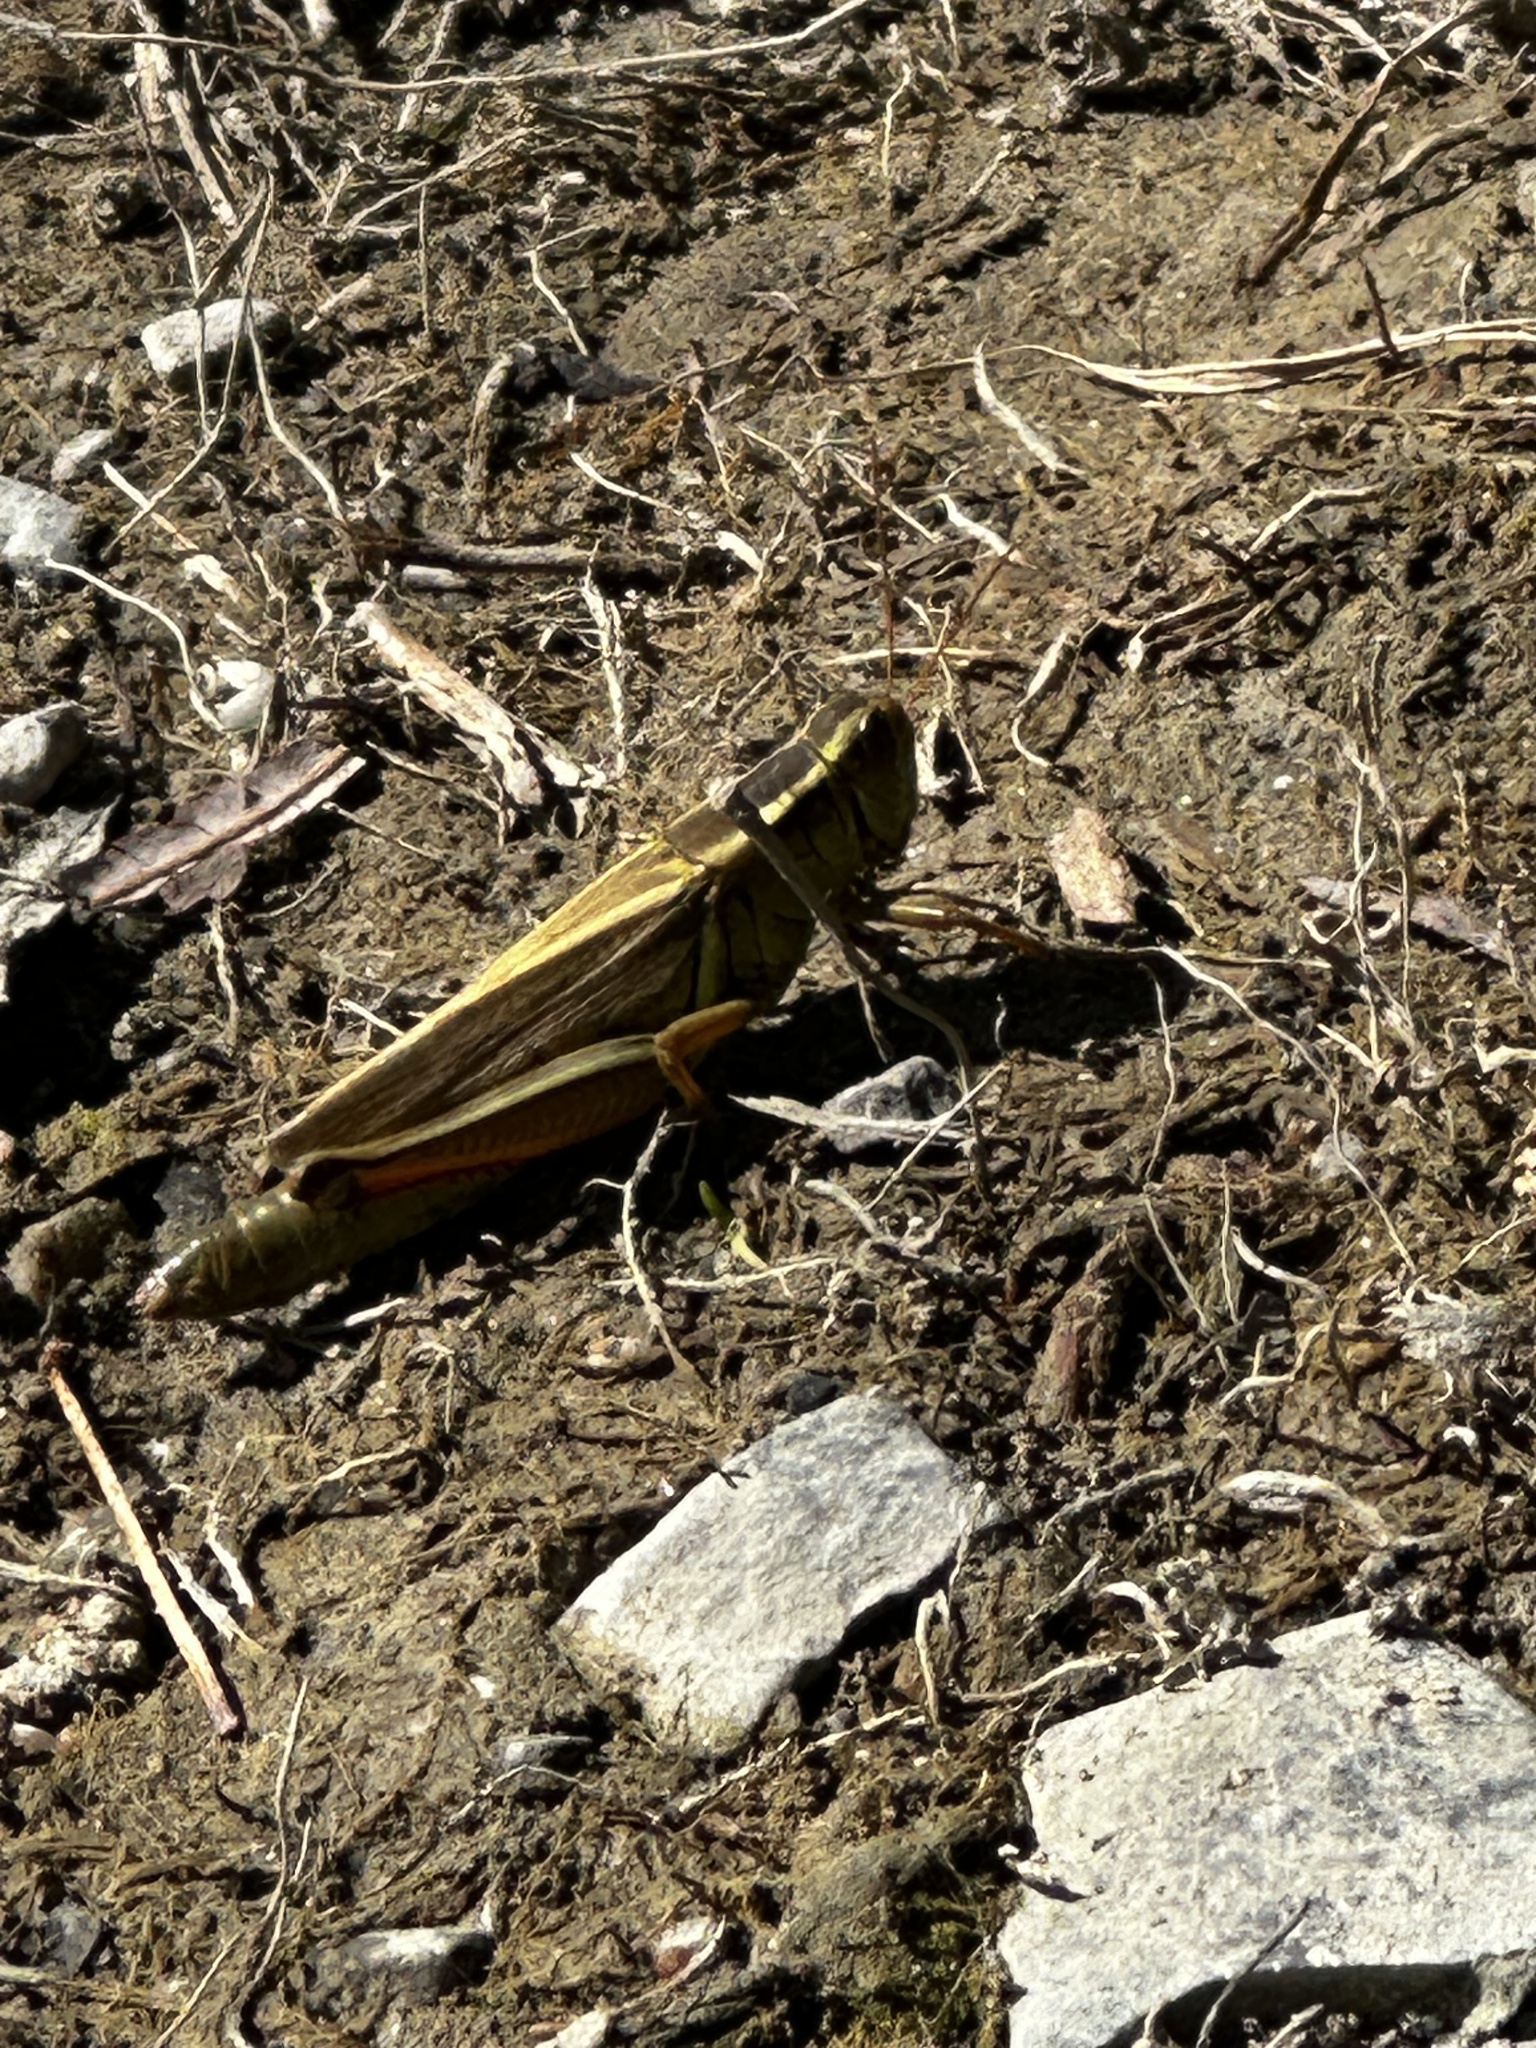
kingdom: Animalia
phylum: Arthropoda
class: Insecta
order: Orthoptera
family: Acrididae
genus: Melanoplus
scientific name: Melanoplus bivittatus
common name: Two-striped grasshopper
